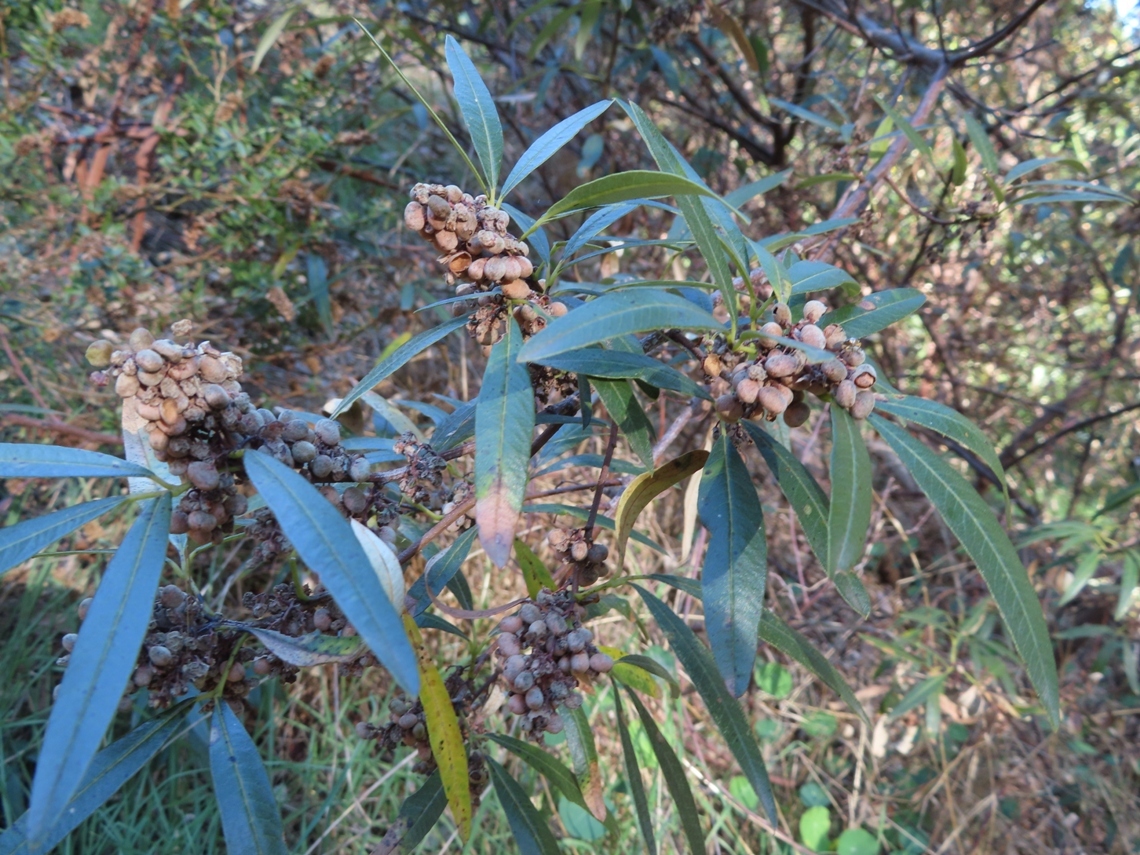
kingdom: Plantae
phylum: Tracheophyta
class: Magnoliopsida
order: Sapindales
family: Anacardiaceae
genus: Searsia
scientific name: Searsia angustifolia
